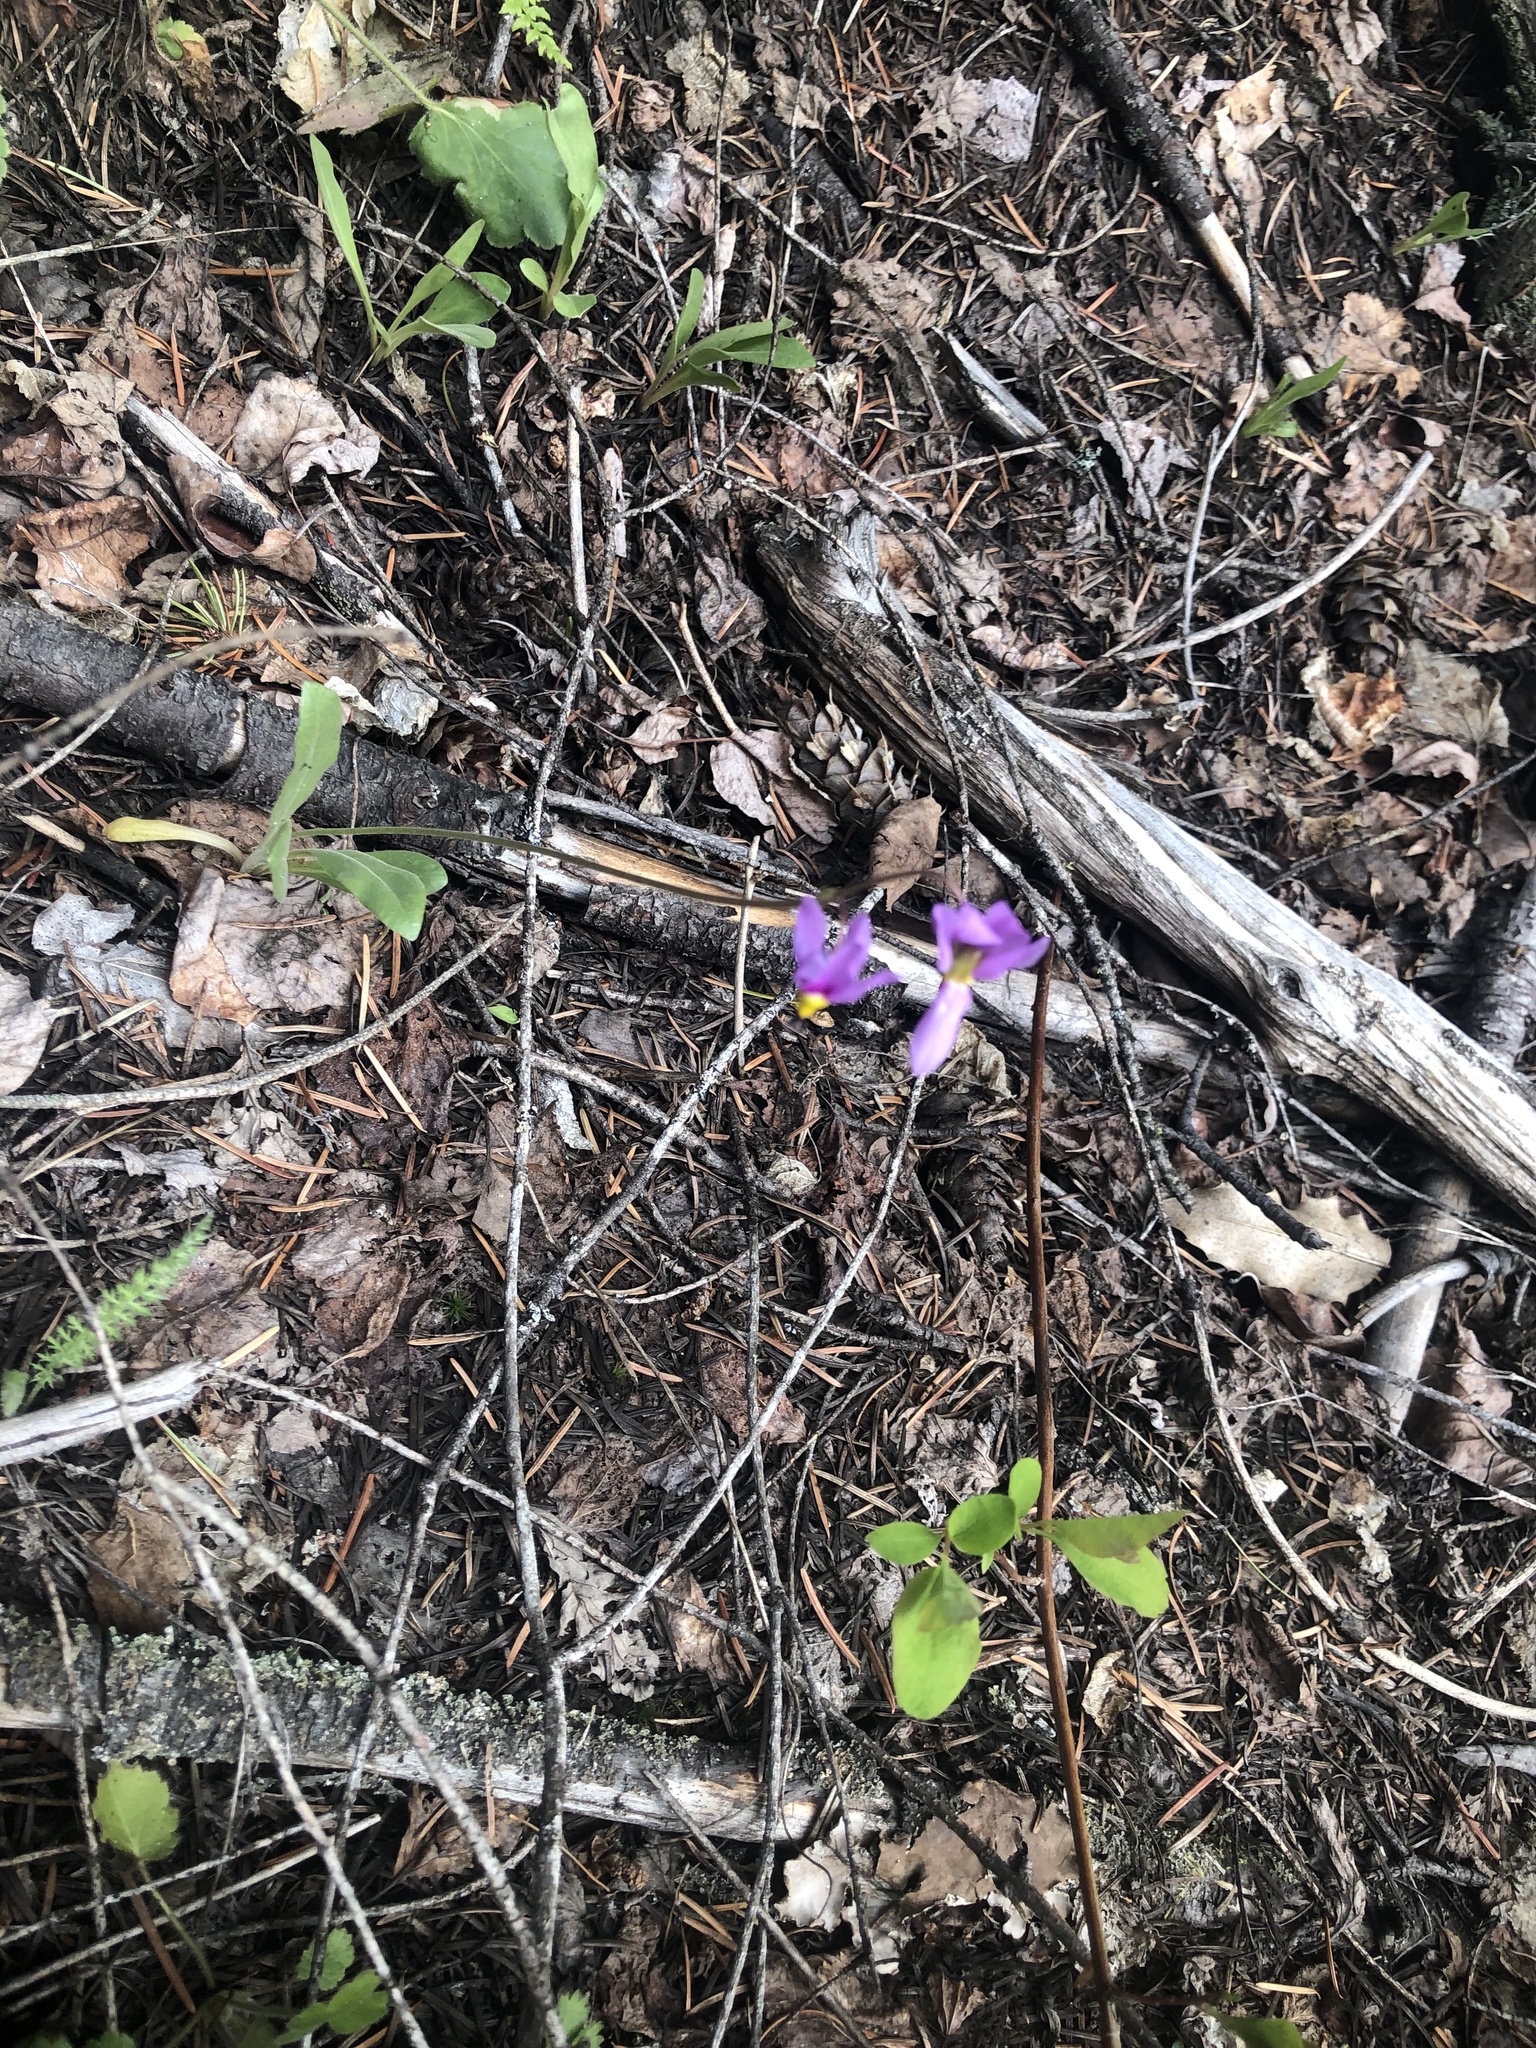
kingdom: Plantae
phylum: Tracheophyta
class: Magnoliopsida
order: Ericales
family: Primulaceae
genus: Dodecatheon
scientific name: Dodecatheon pulchellum
